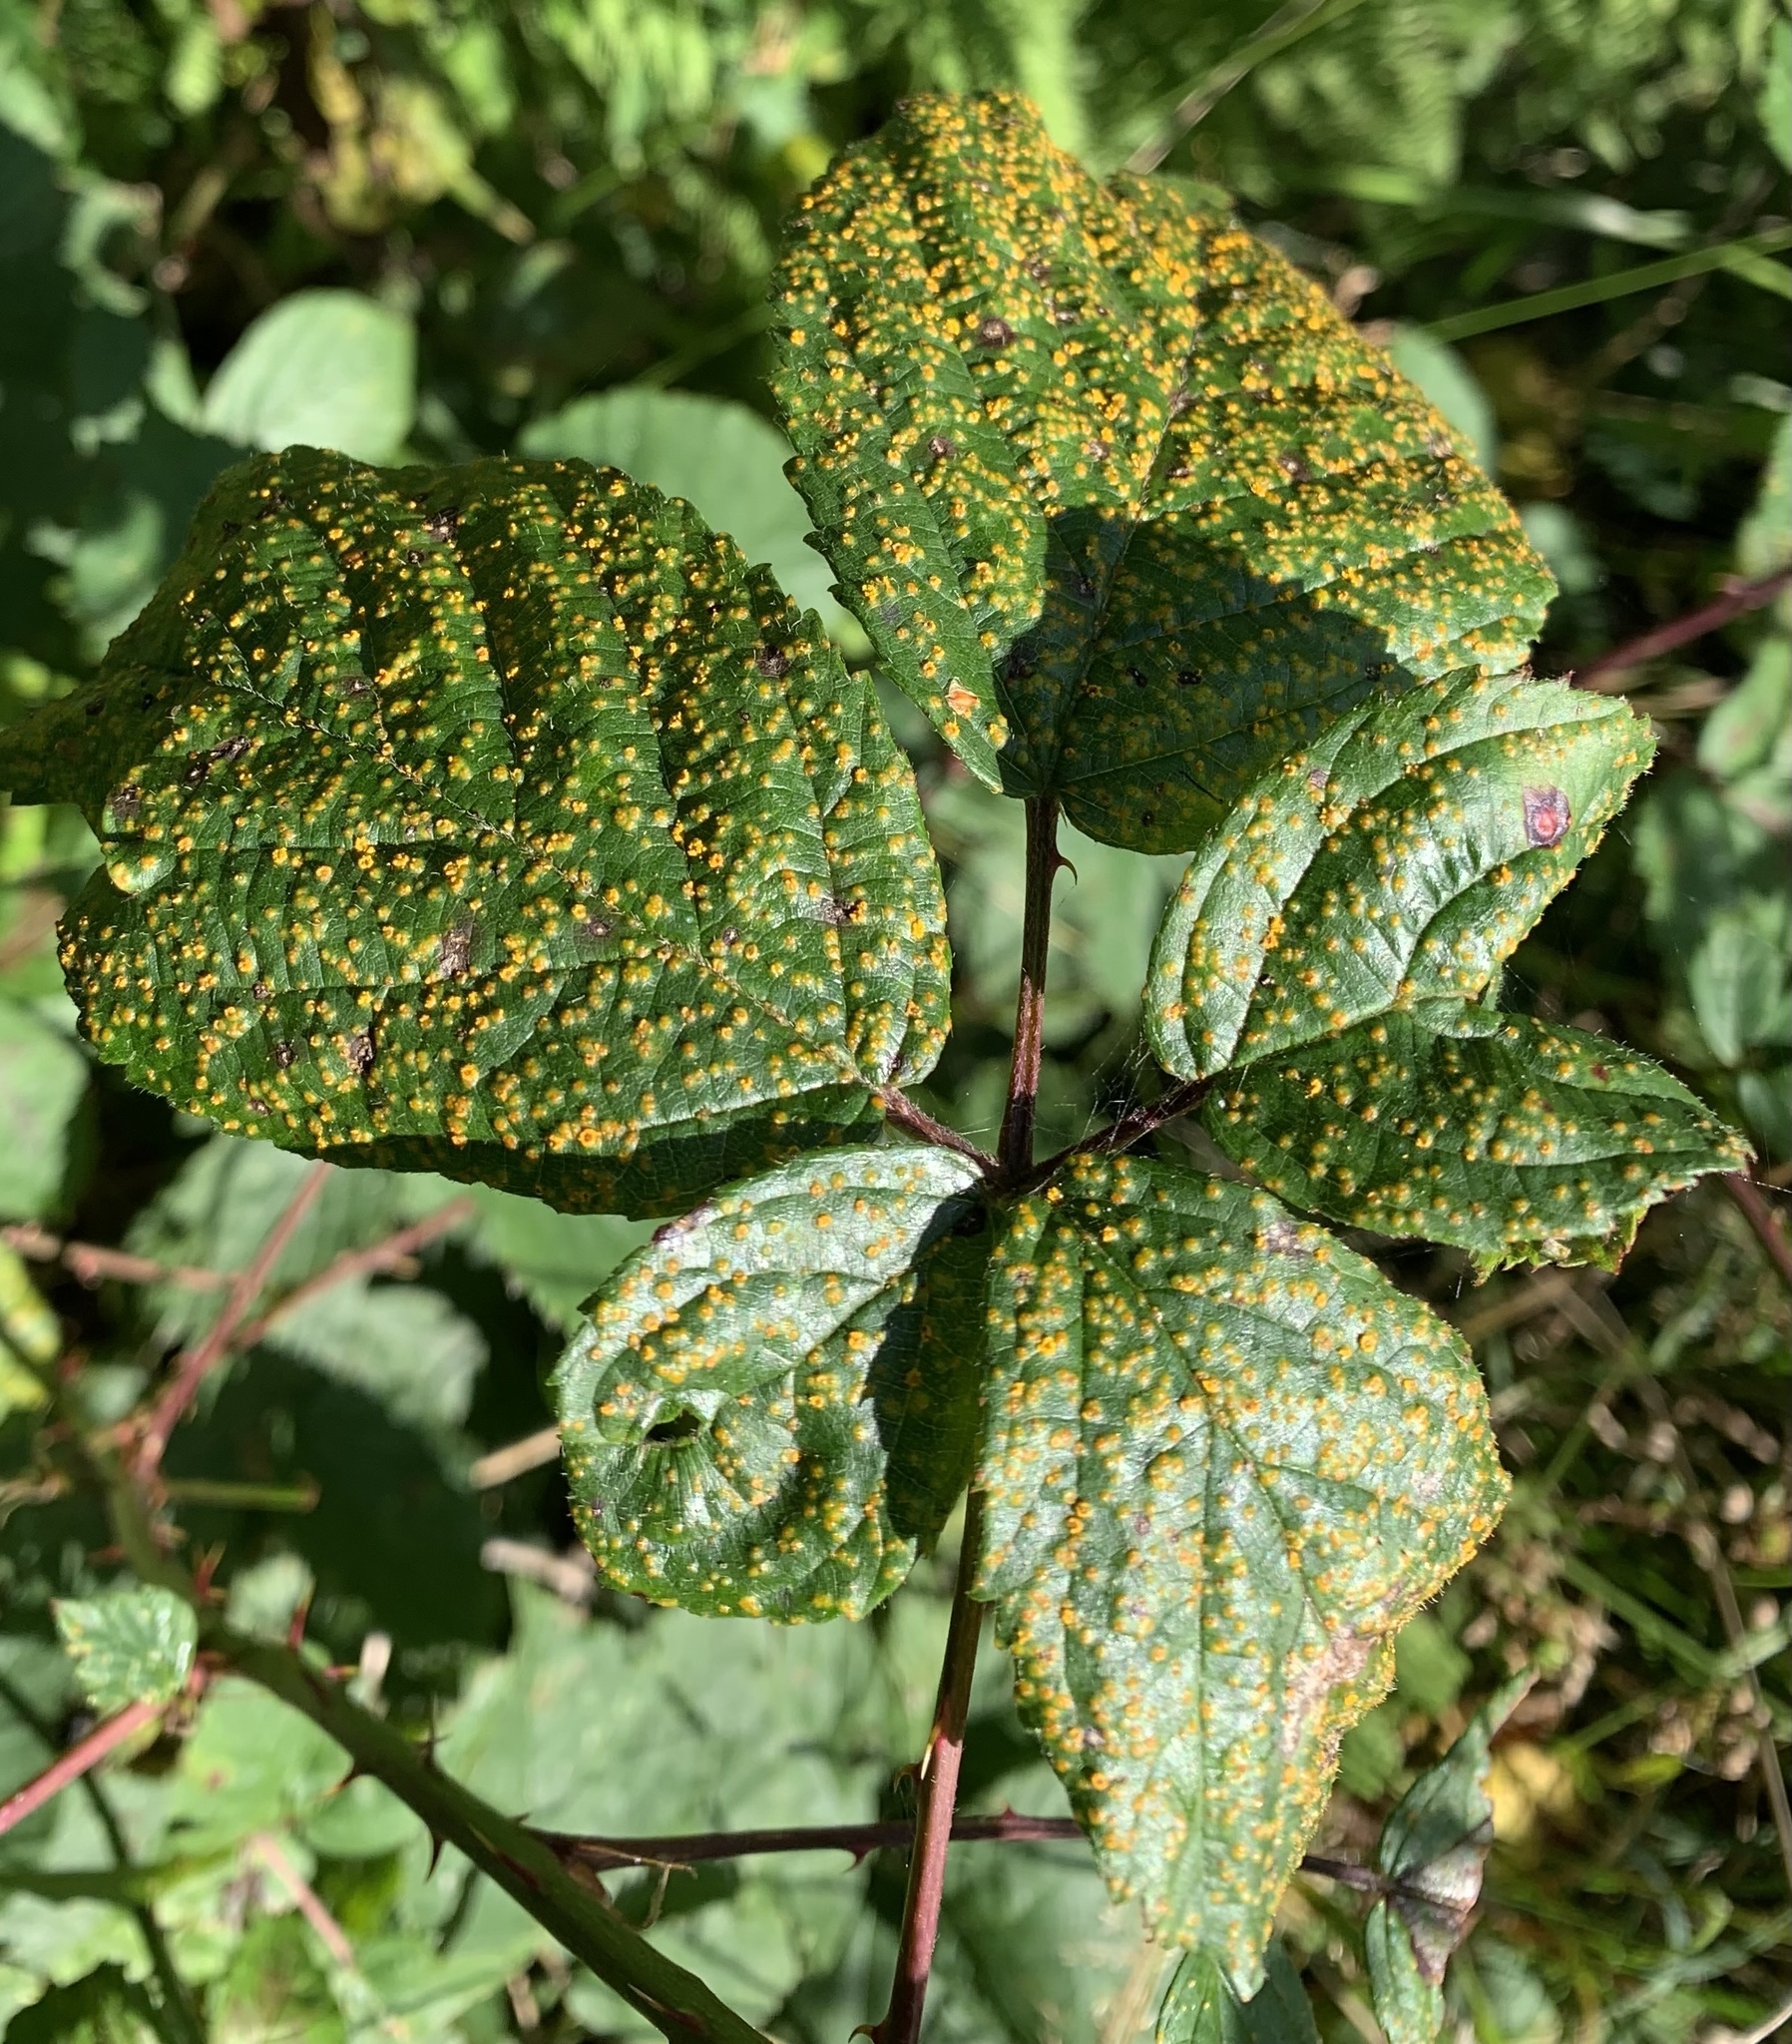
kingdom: Fungi
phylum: Basidiomycota
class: Pucciniomycetes
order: Pucciniales
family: Phragmidiaceae
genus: Kuehneola
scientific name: Kuehneola uredinis
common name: Bramble stem rust
